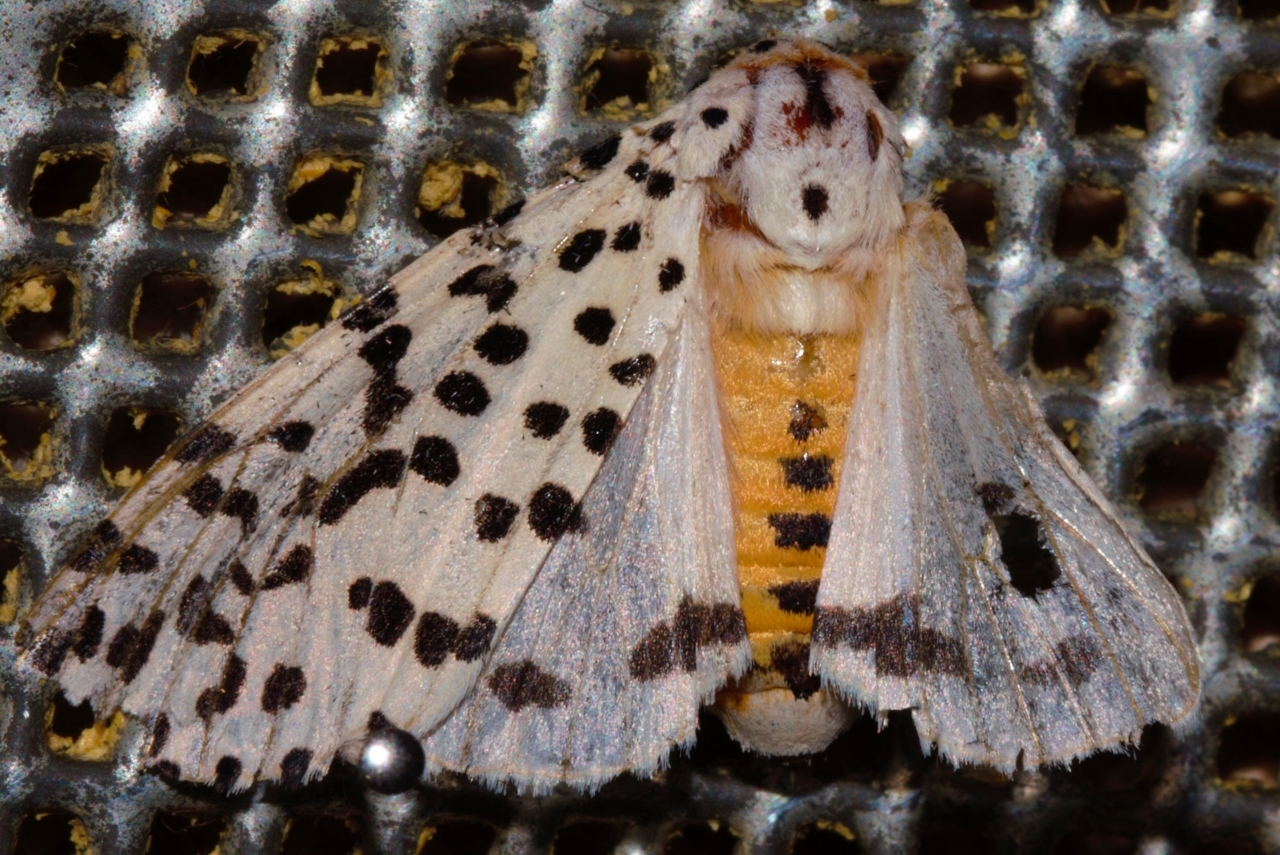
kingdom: Animalia
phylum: Arthropoda
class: Insecta
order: Lepidoptera
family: Erebidae
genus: Alpenus
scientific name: Alpenus nigropunctata
